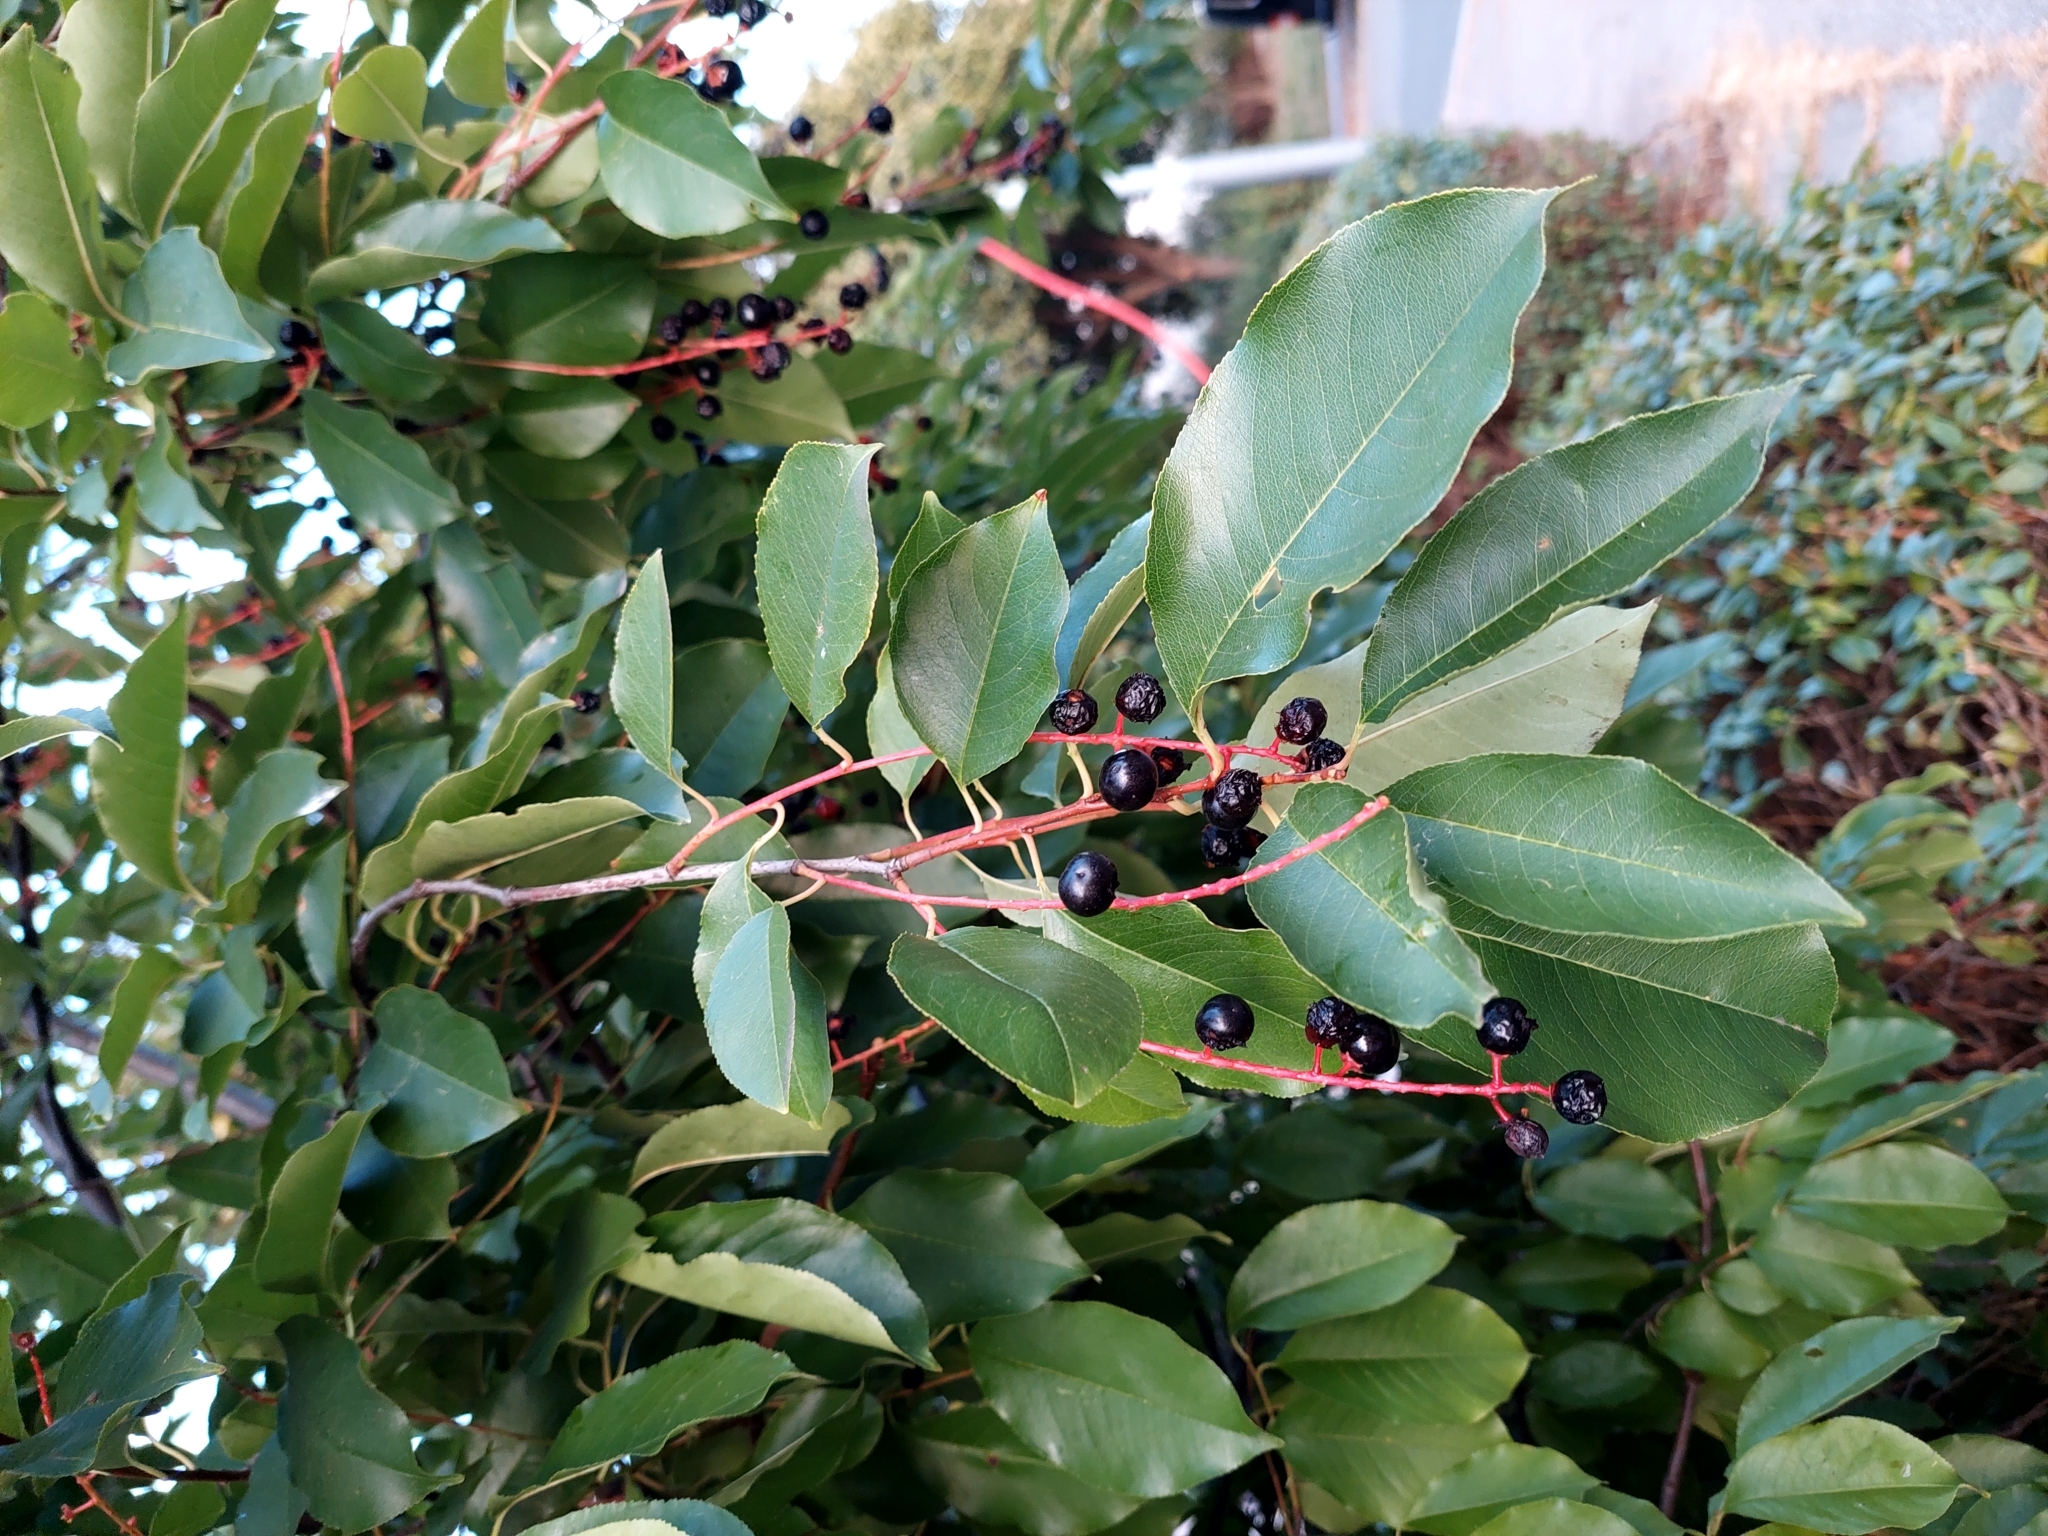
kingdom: Plantae
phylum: Tracheophyta
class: Magnoliopsida
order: Rosales
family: Rosaceae
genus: Prunus
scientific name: Prunus serotina
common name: Black cherry
